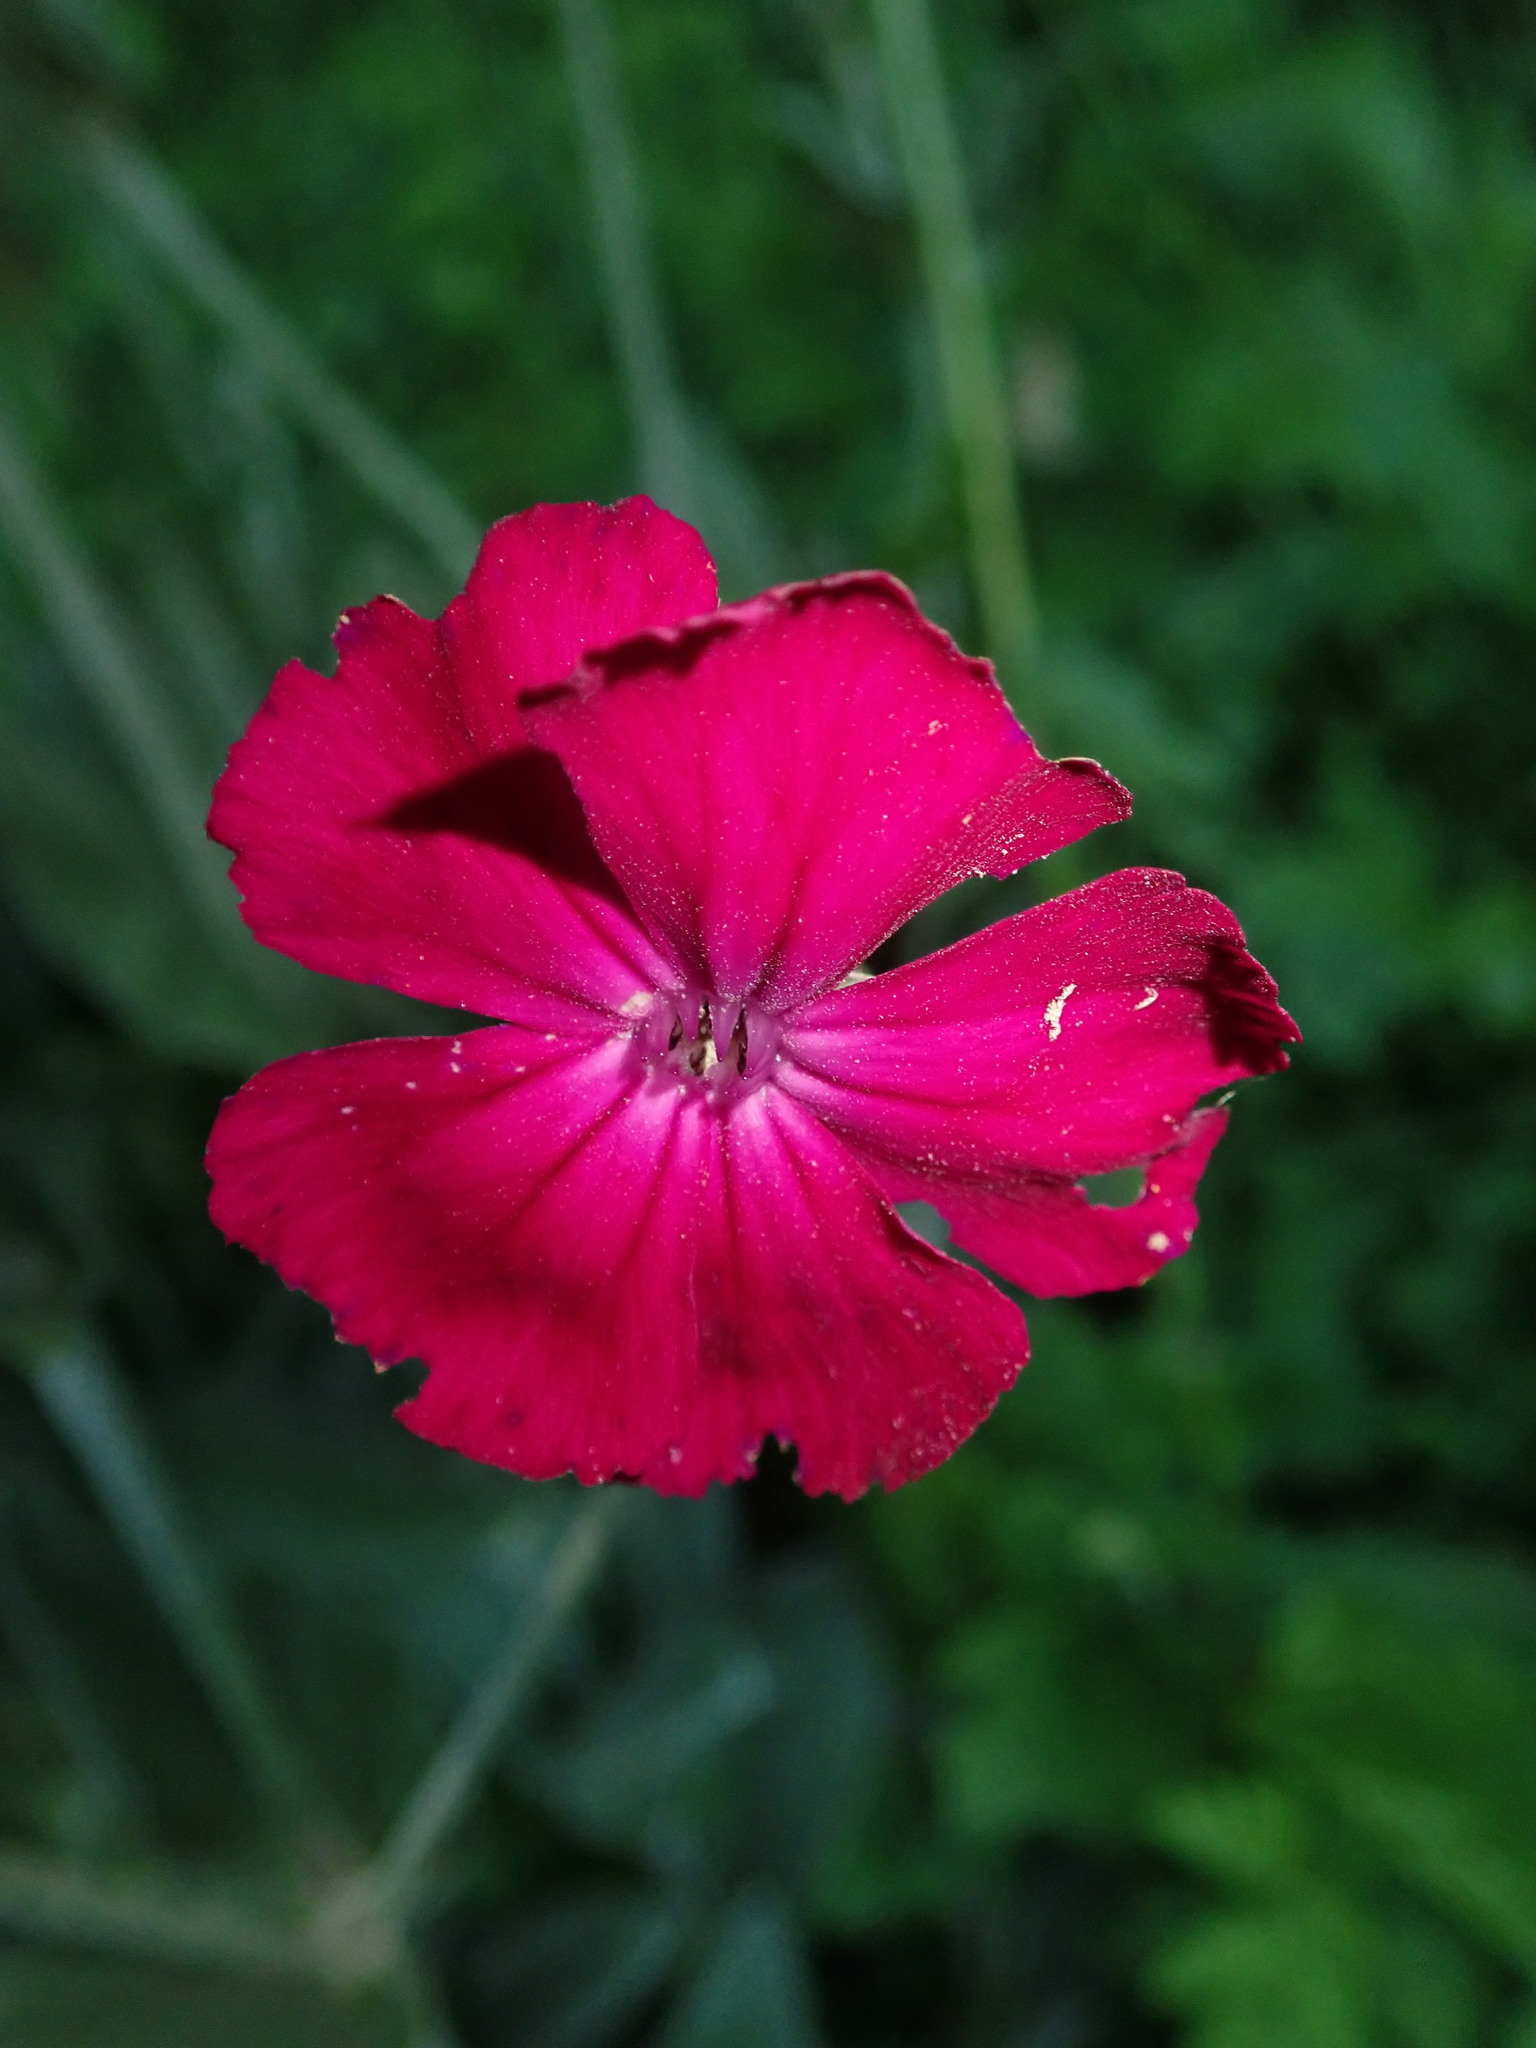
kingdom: Plantae
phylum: Tracheophyta
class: Magnoliopsida
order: Caryophyllales
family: Caryophyllaceae
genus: Silene
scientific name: Silene coronaria
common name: Rose campion
